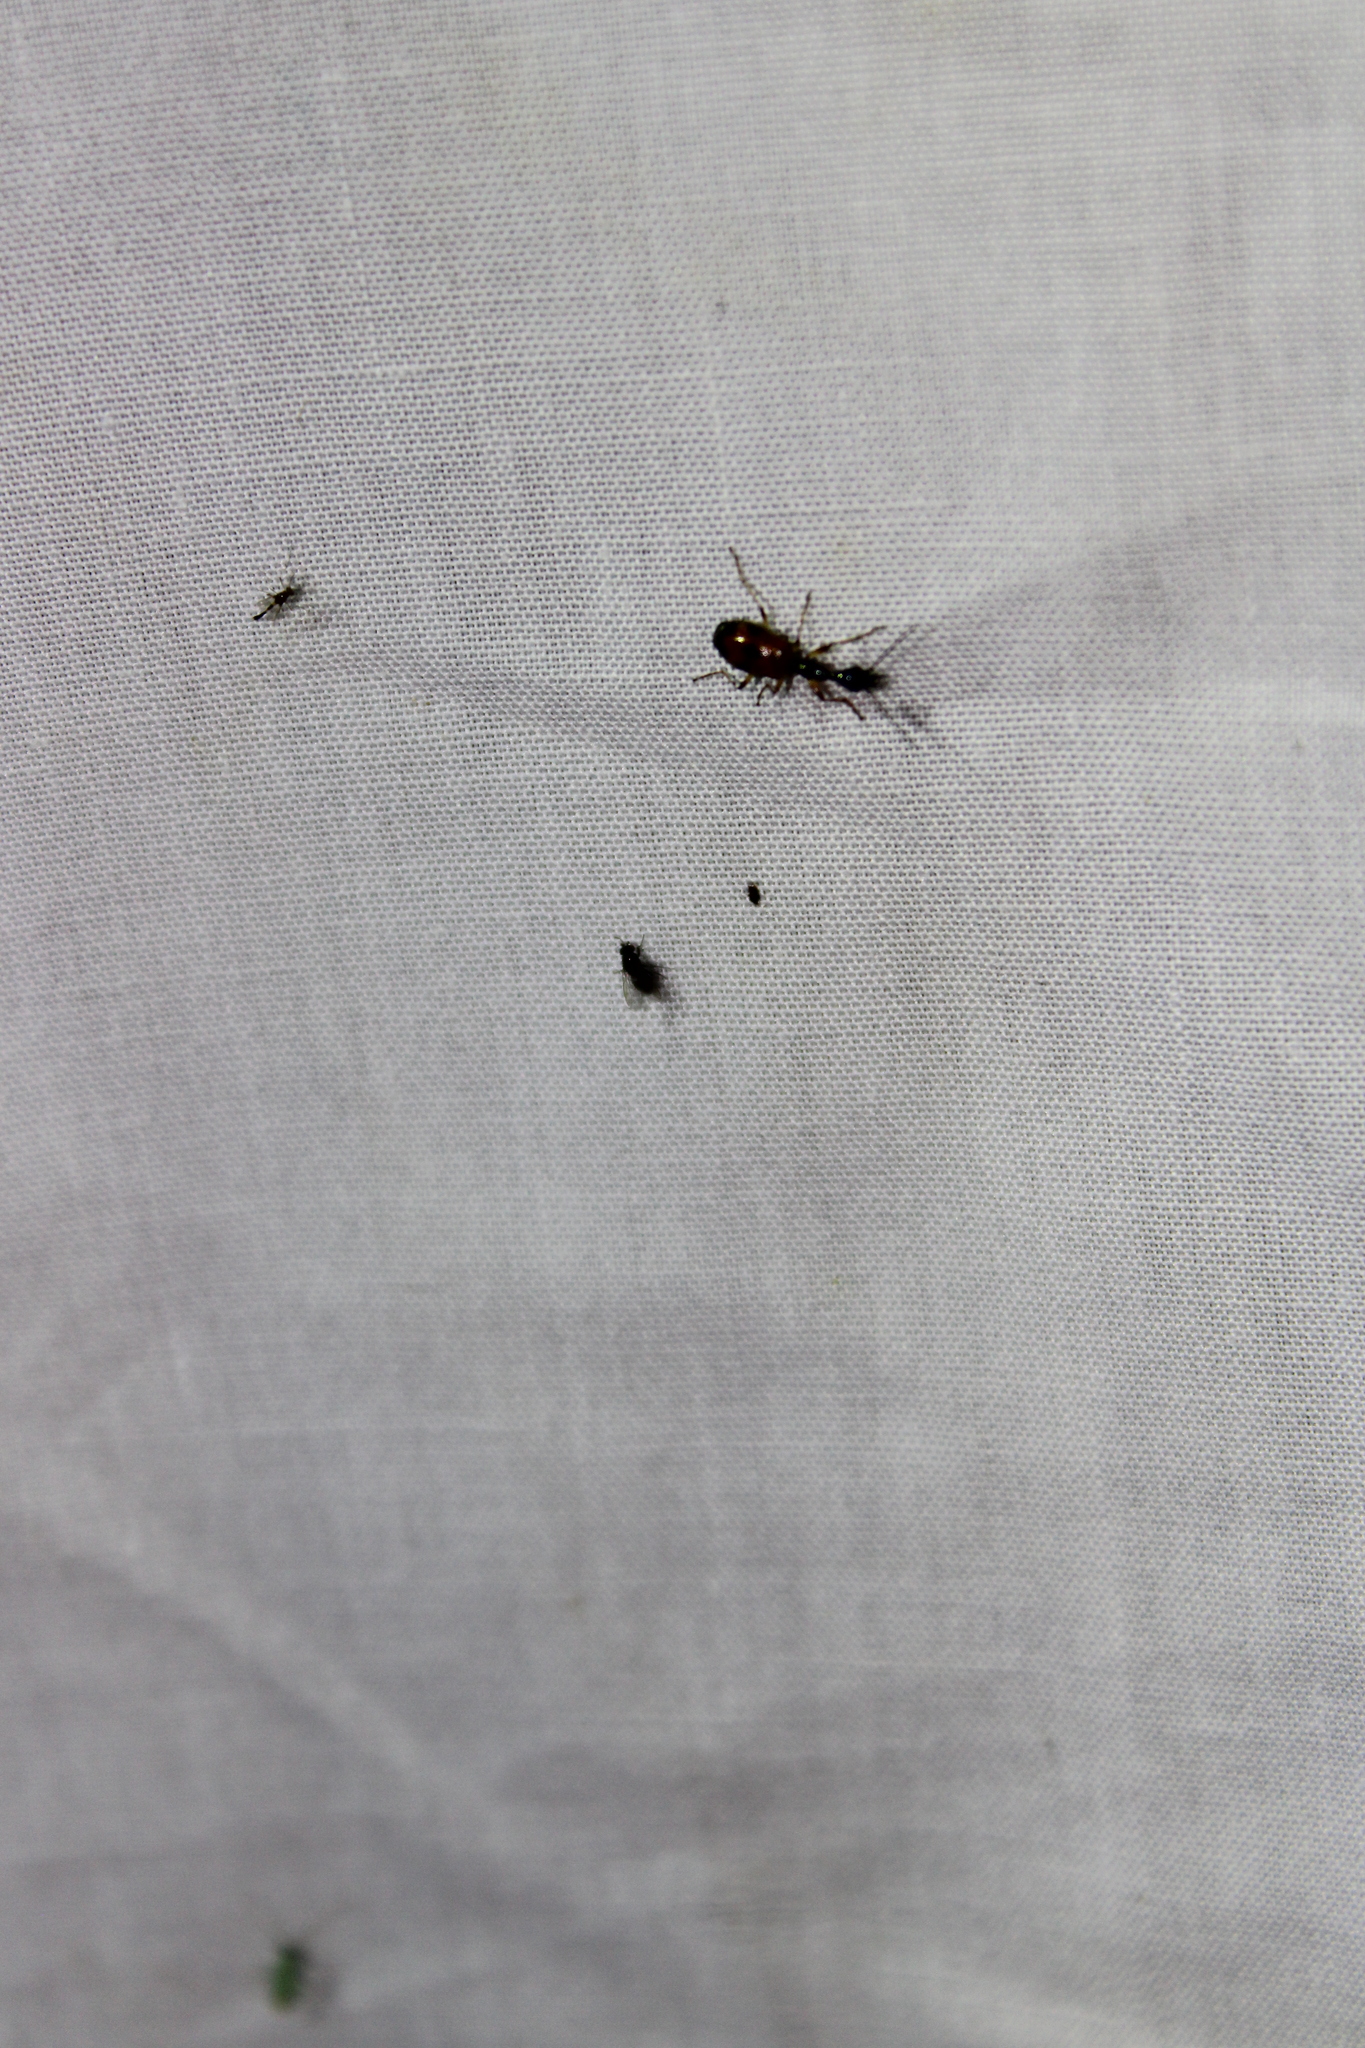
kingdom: Animalia
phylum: Arthropoda
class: Insecta
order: Coleoptera
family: Carabidae
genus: Colliuris
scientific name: Colliuris pensylvanica
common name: Long-necked ground beetle
